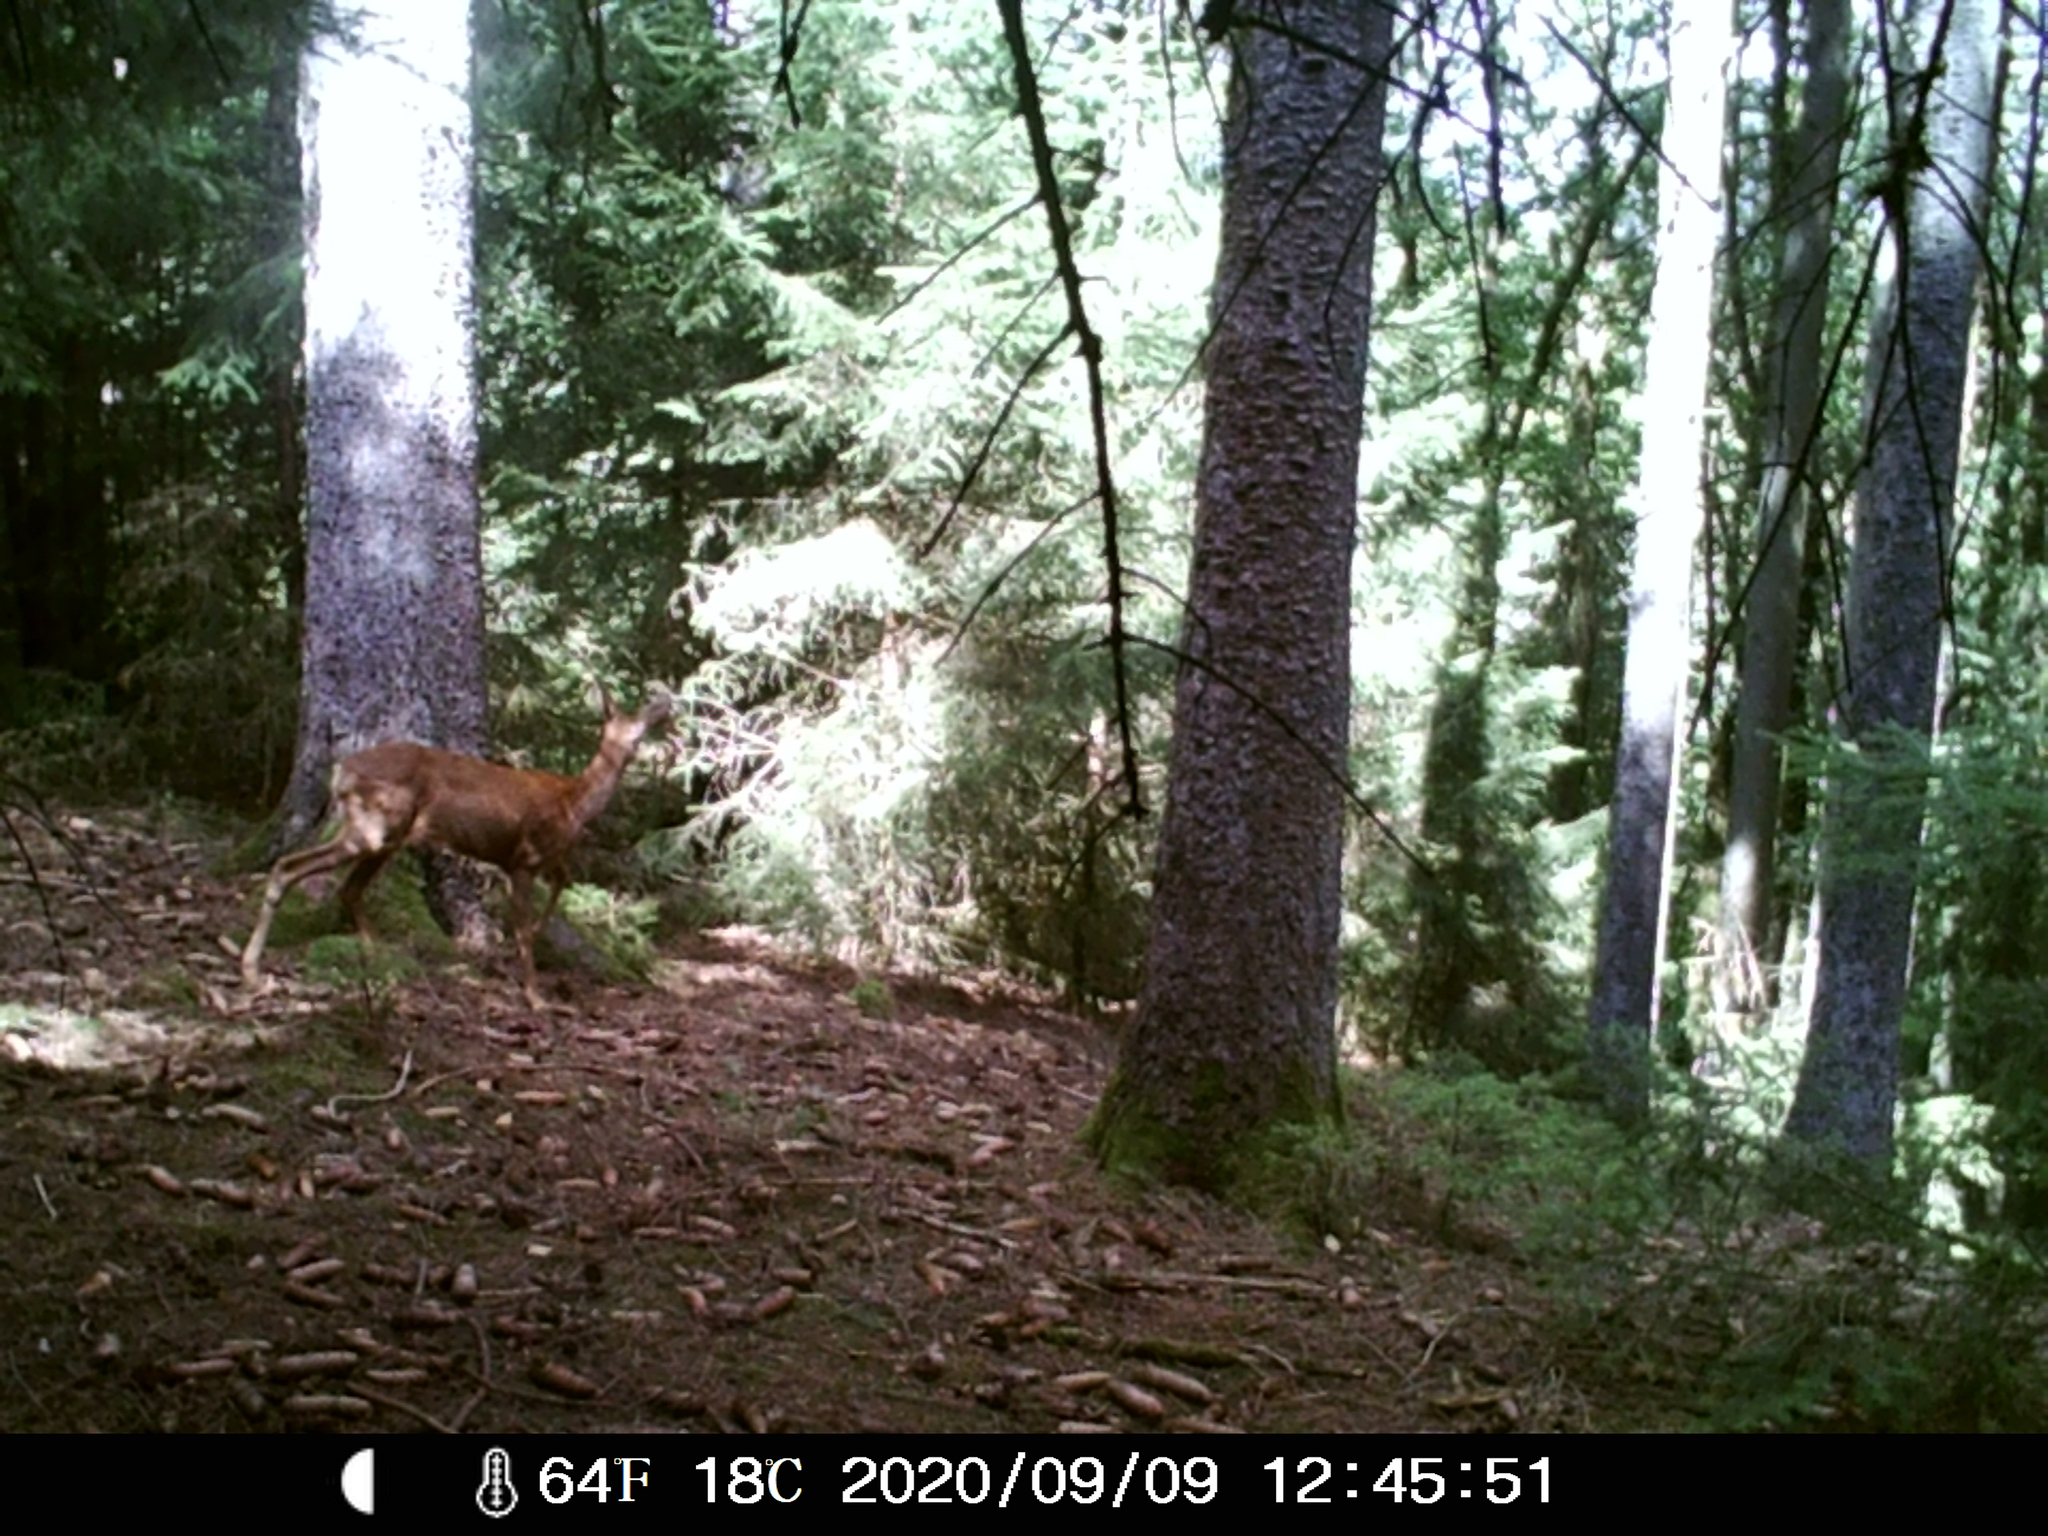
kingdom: Animalia
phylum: Chordata
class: Mammalia
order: Artiodactyla
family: Cervidae
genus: Capreolus
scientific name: Capreolus capreolus
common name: Western roe deer
